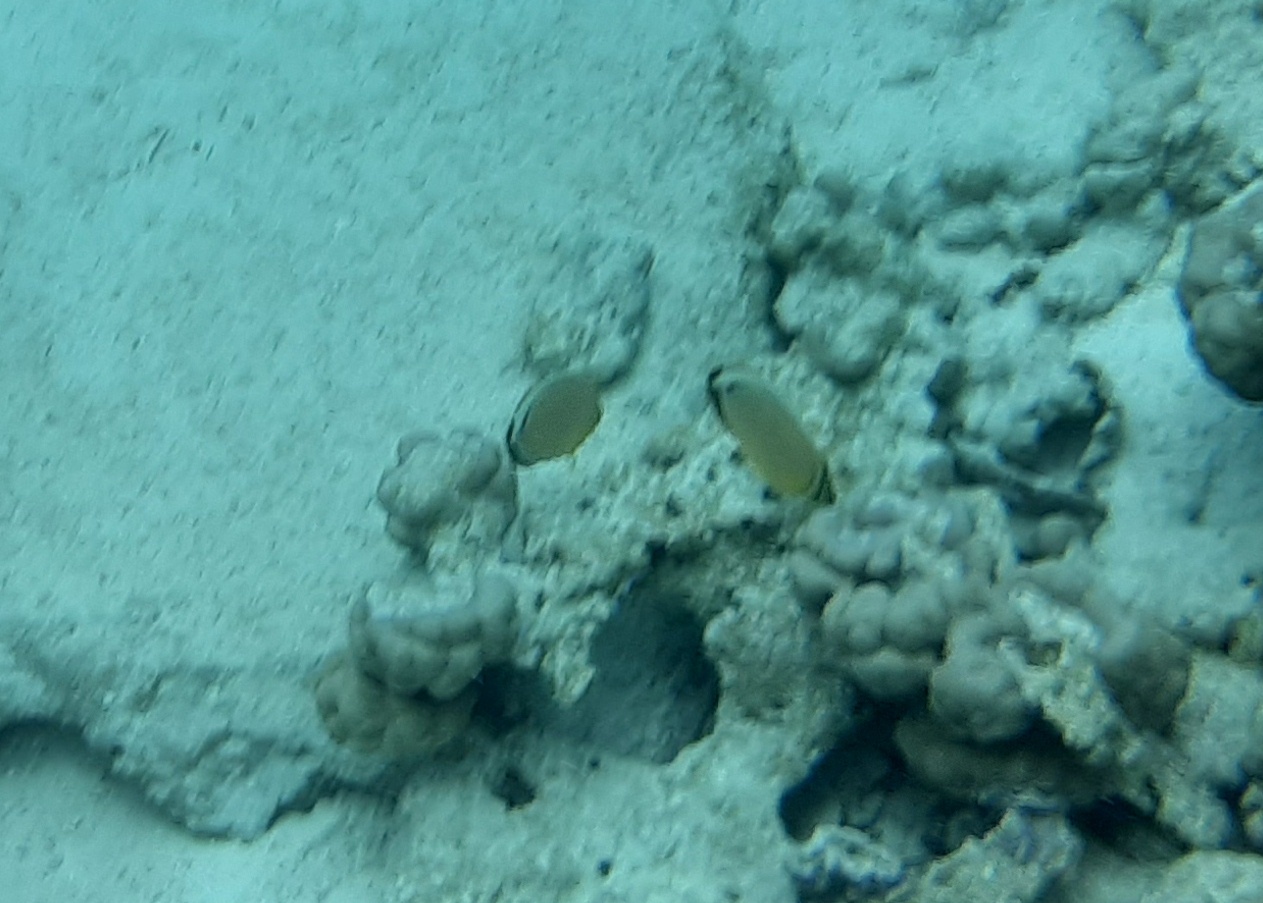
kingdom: Animalia
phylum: Chordata
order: Perciformes
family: Chaetodontidae
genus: Chaetodon
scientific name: Chaetodon lunulatus
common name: Redfin butterflyfish
